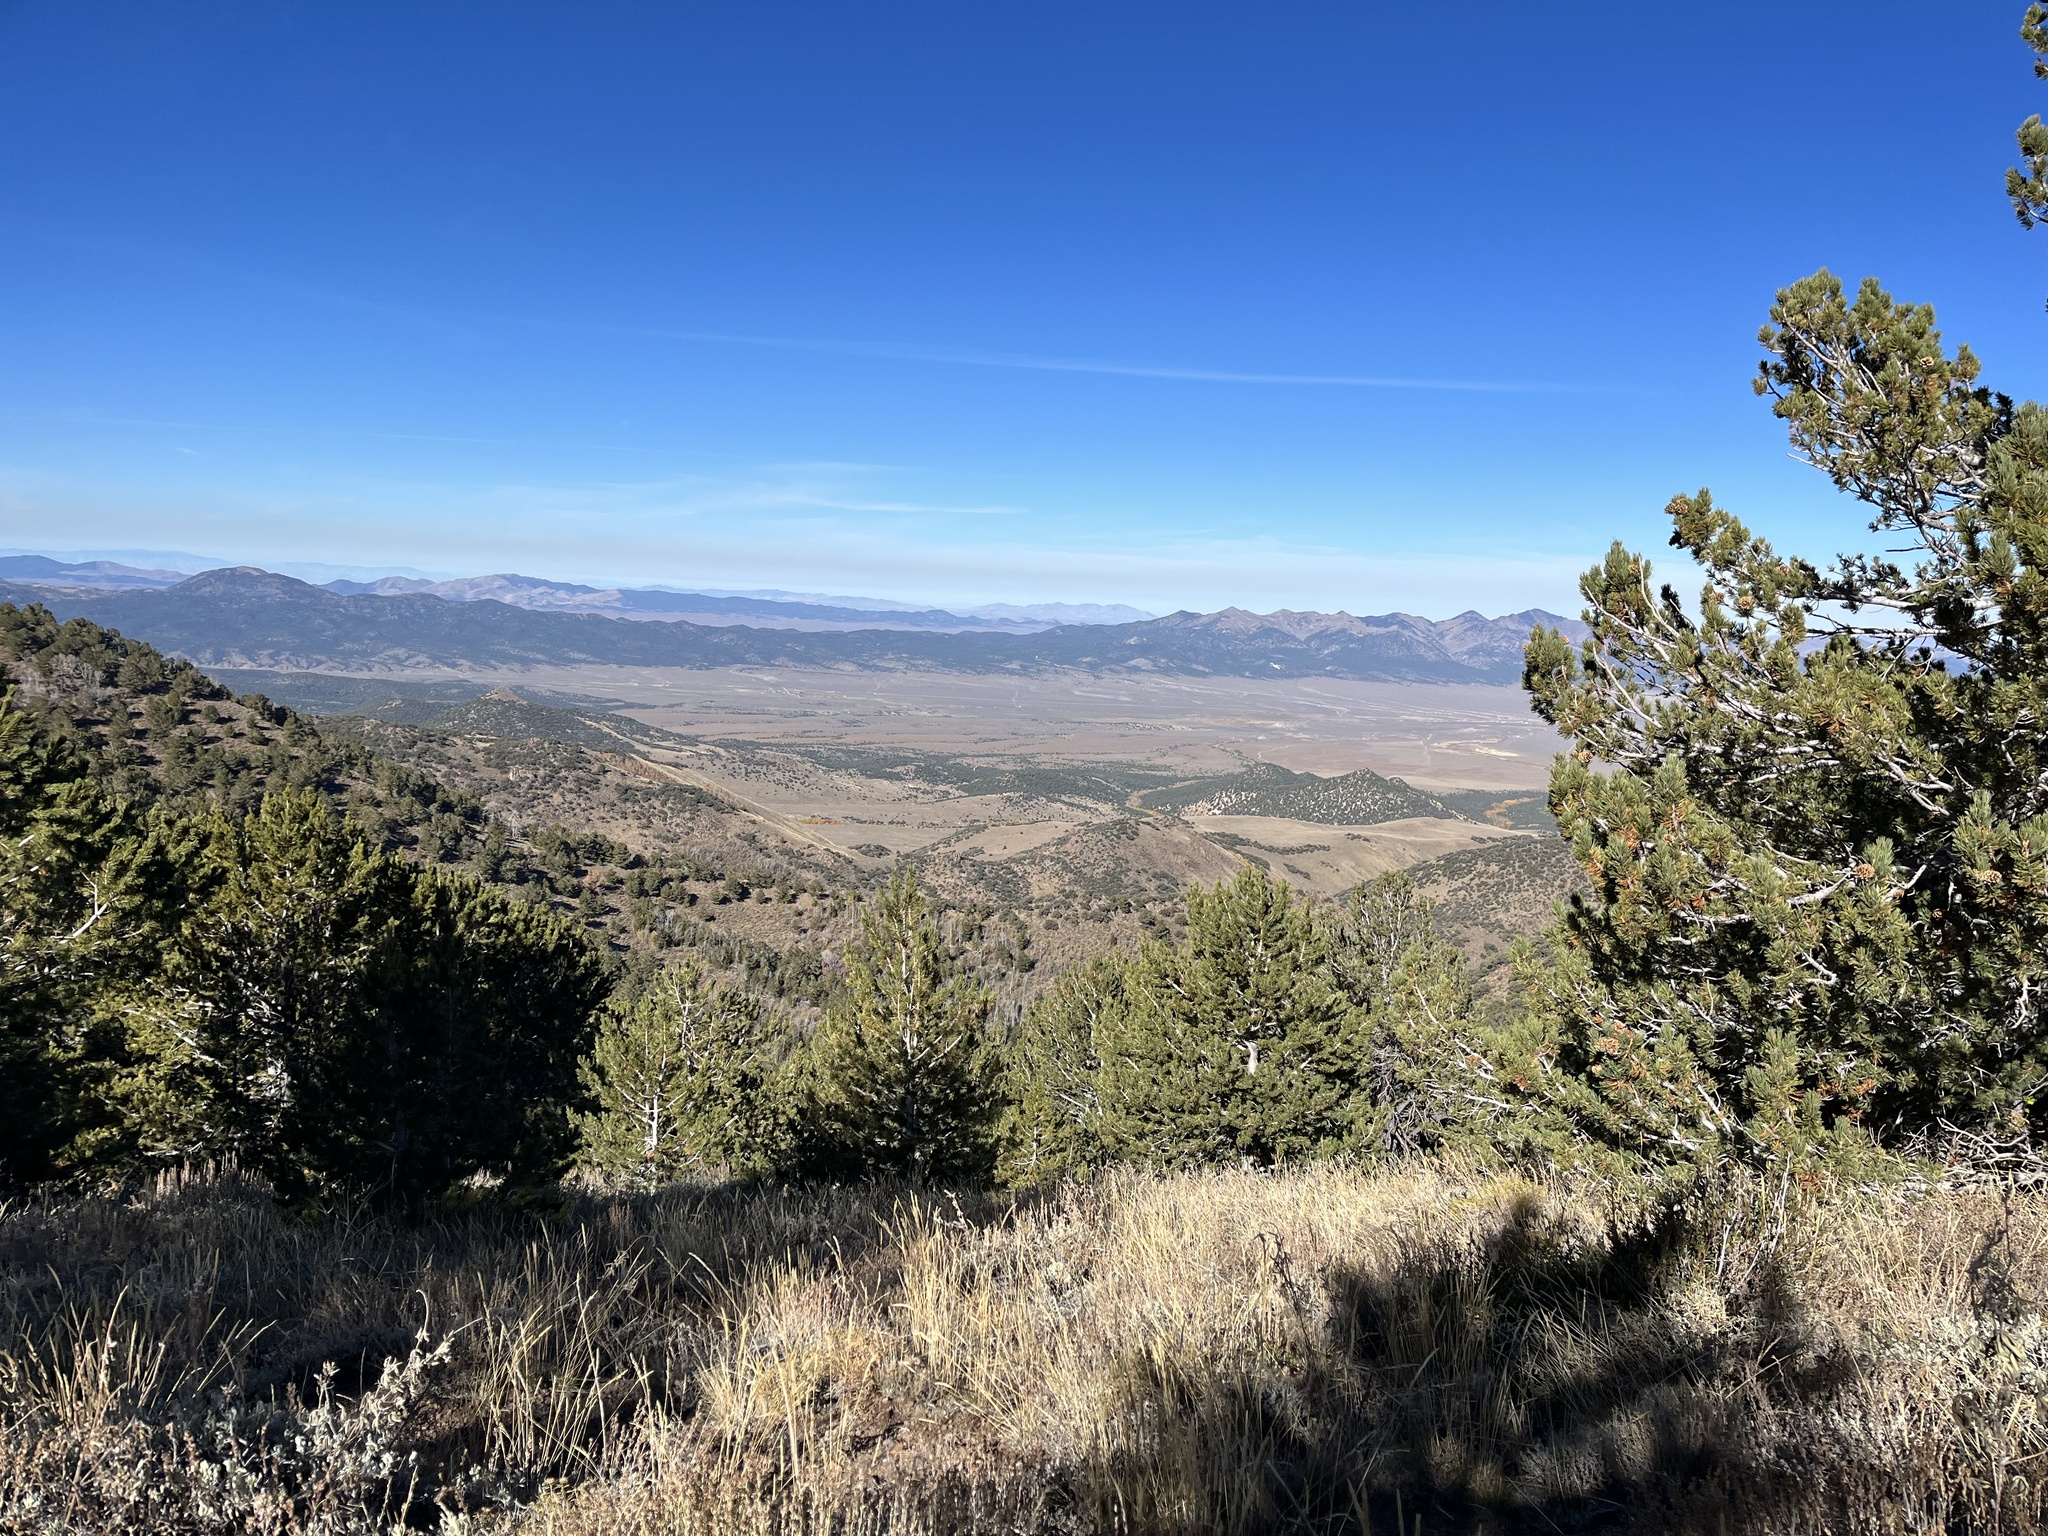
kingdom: Plantae
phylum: Tracheophyta
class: Pinopsida
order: Pinales
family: Pinaceae
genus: Pinus
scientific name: Pinus flexilis
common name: Limber pine
